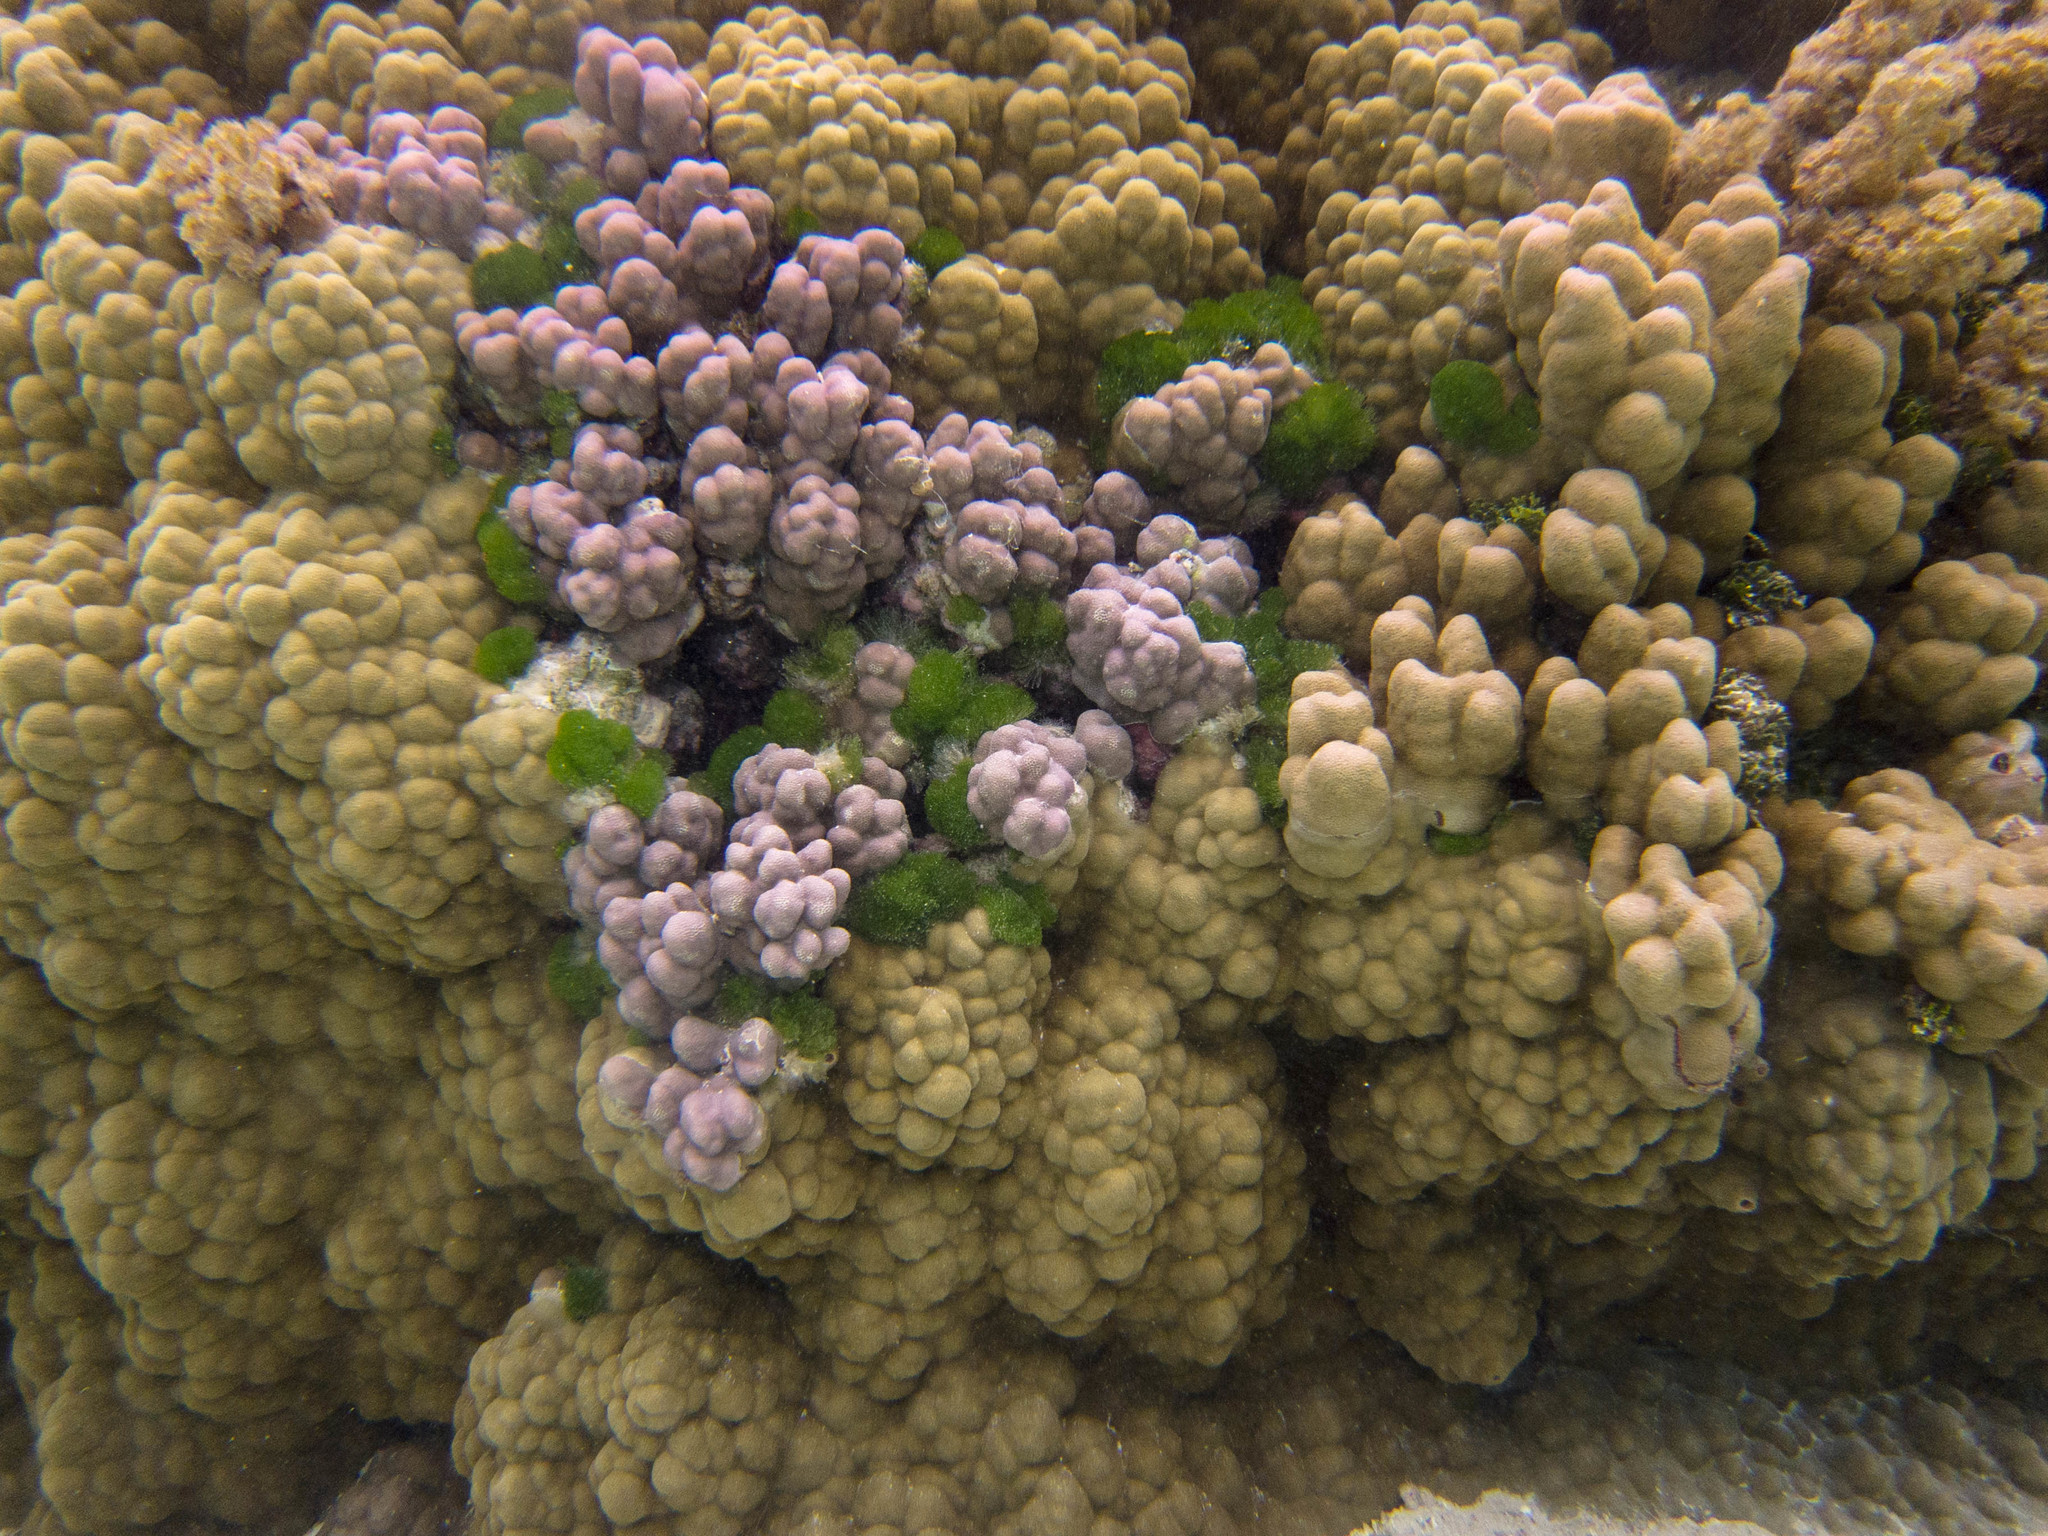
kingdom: Animalia
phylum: Cnidaria
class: Anthozoa
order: Scleractinia
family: Poritidae
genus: Porites
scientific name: Porites lobata
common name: Hump coral
